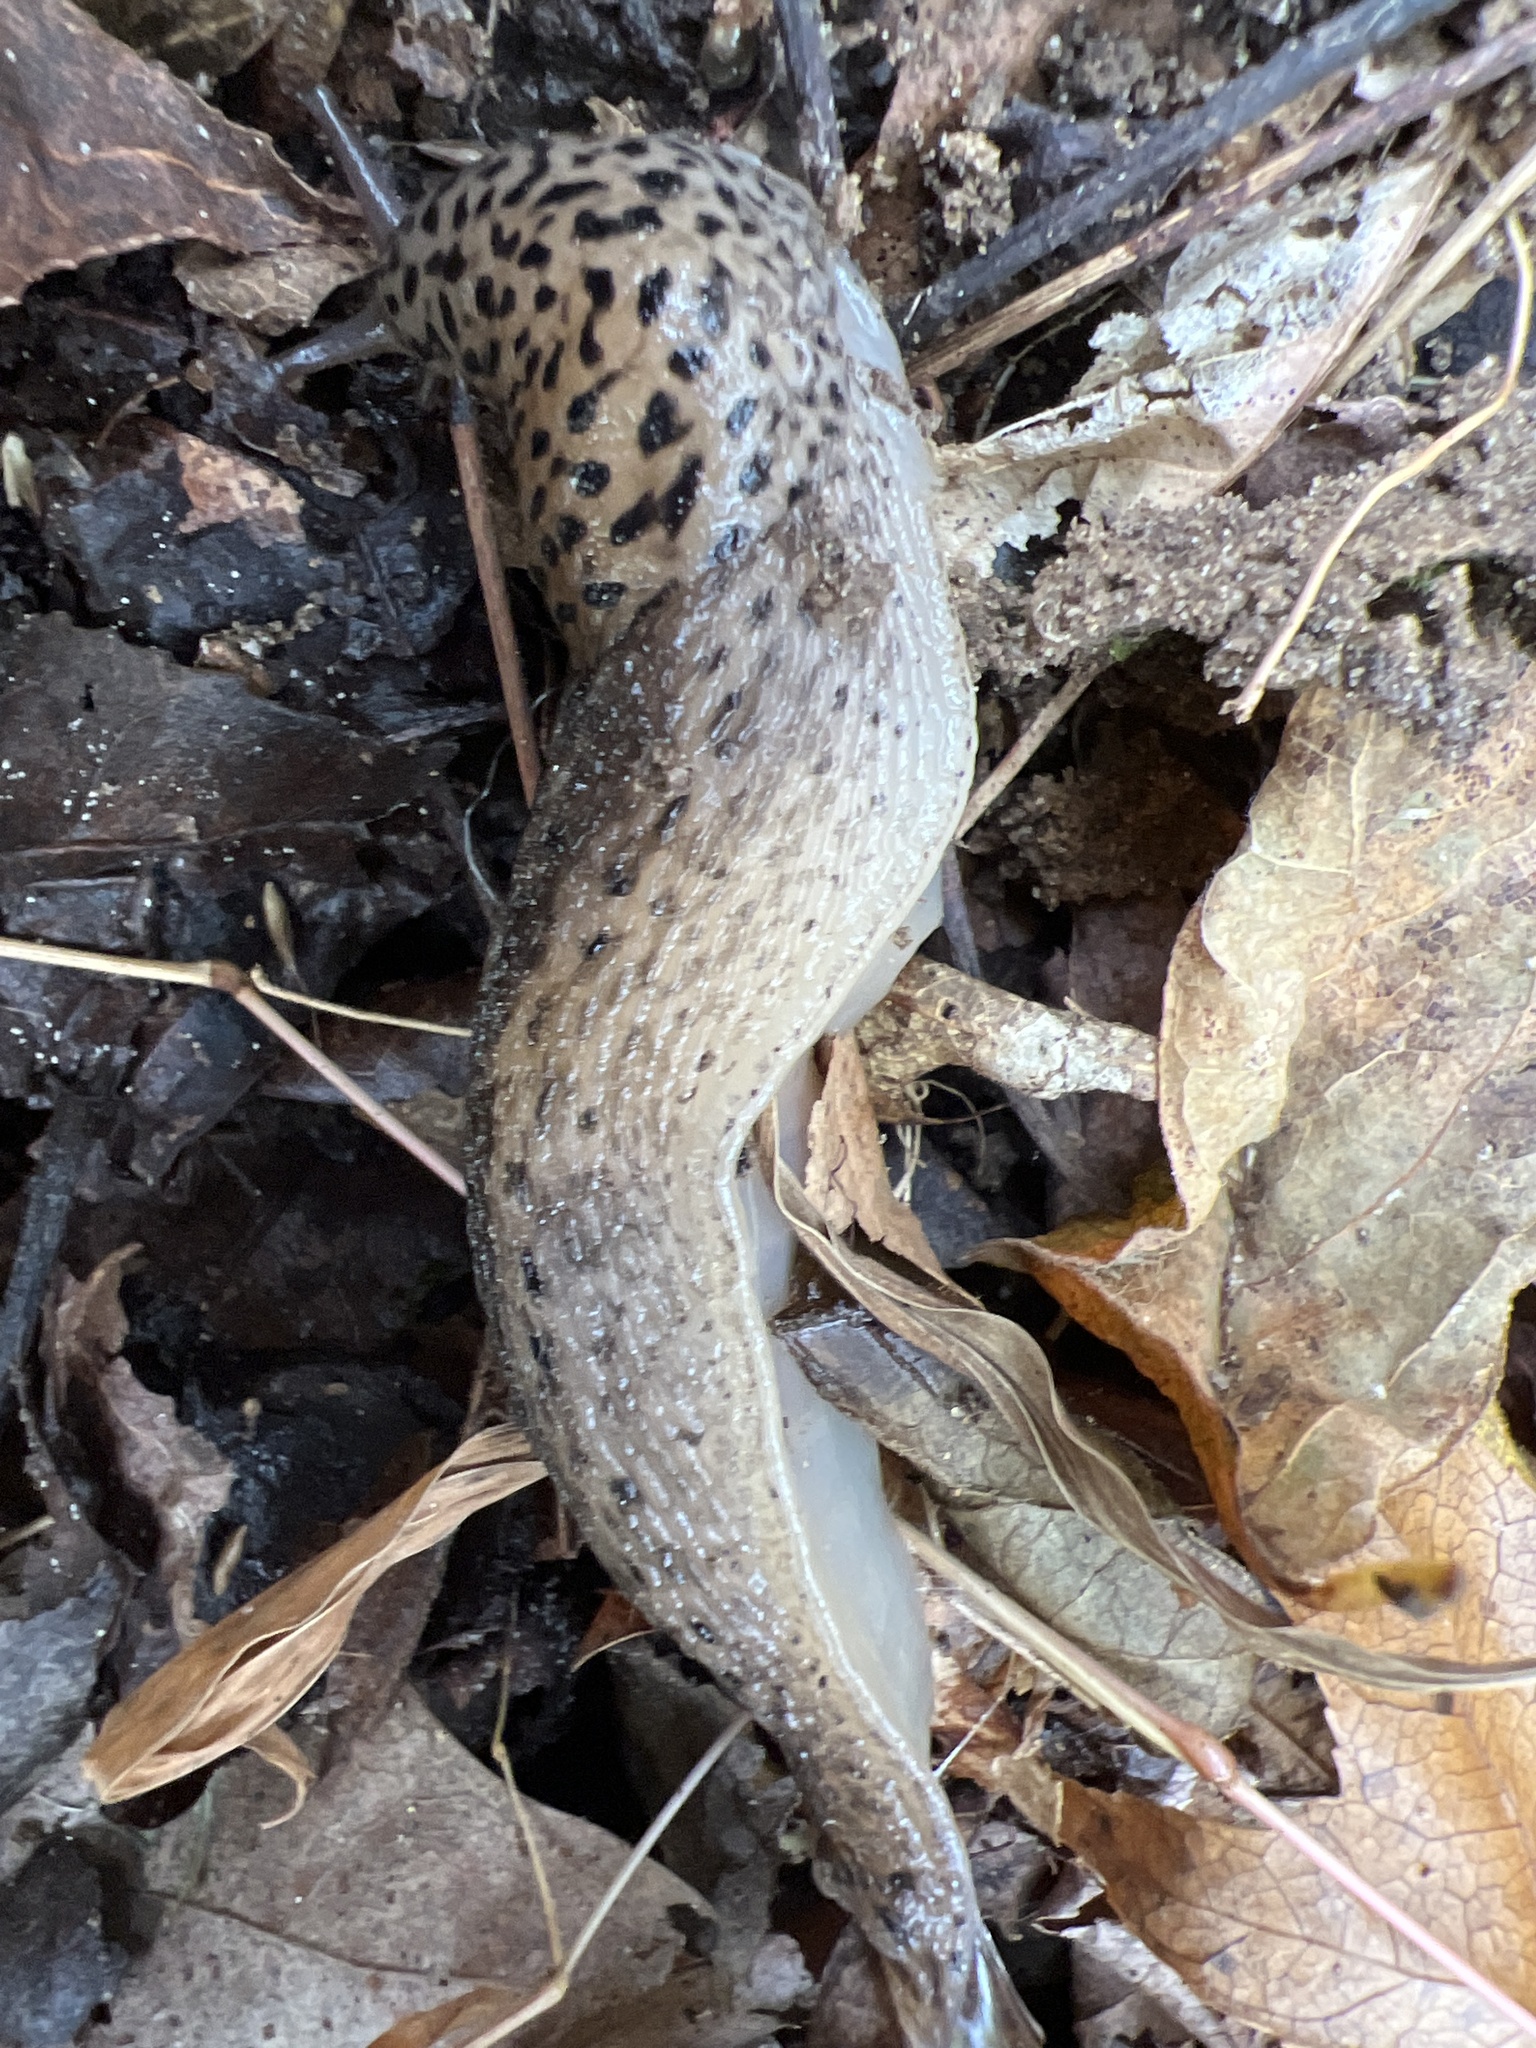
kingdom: Animalia
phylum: Mollusca
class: Gastropoda
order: Stylommatophora
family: Limacidae
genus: Limax
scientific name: Limax maximus
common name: Great grey slug
